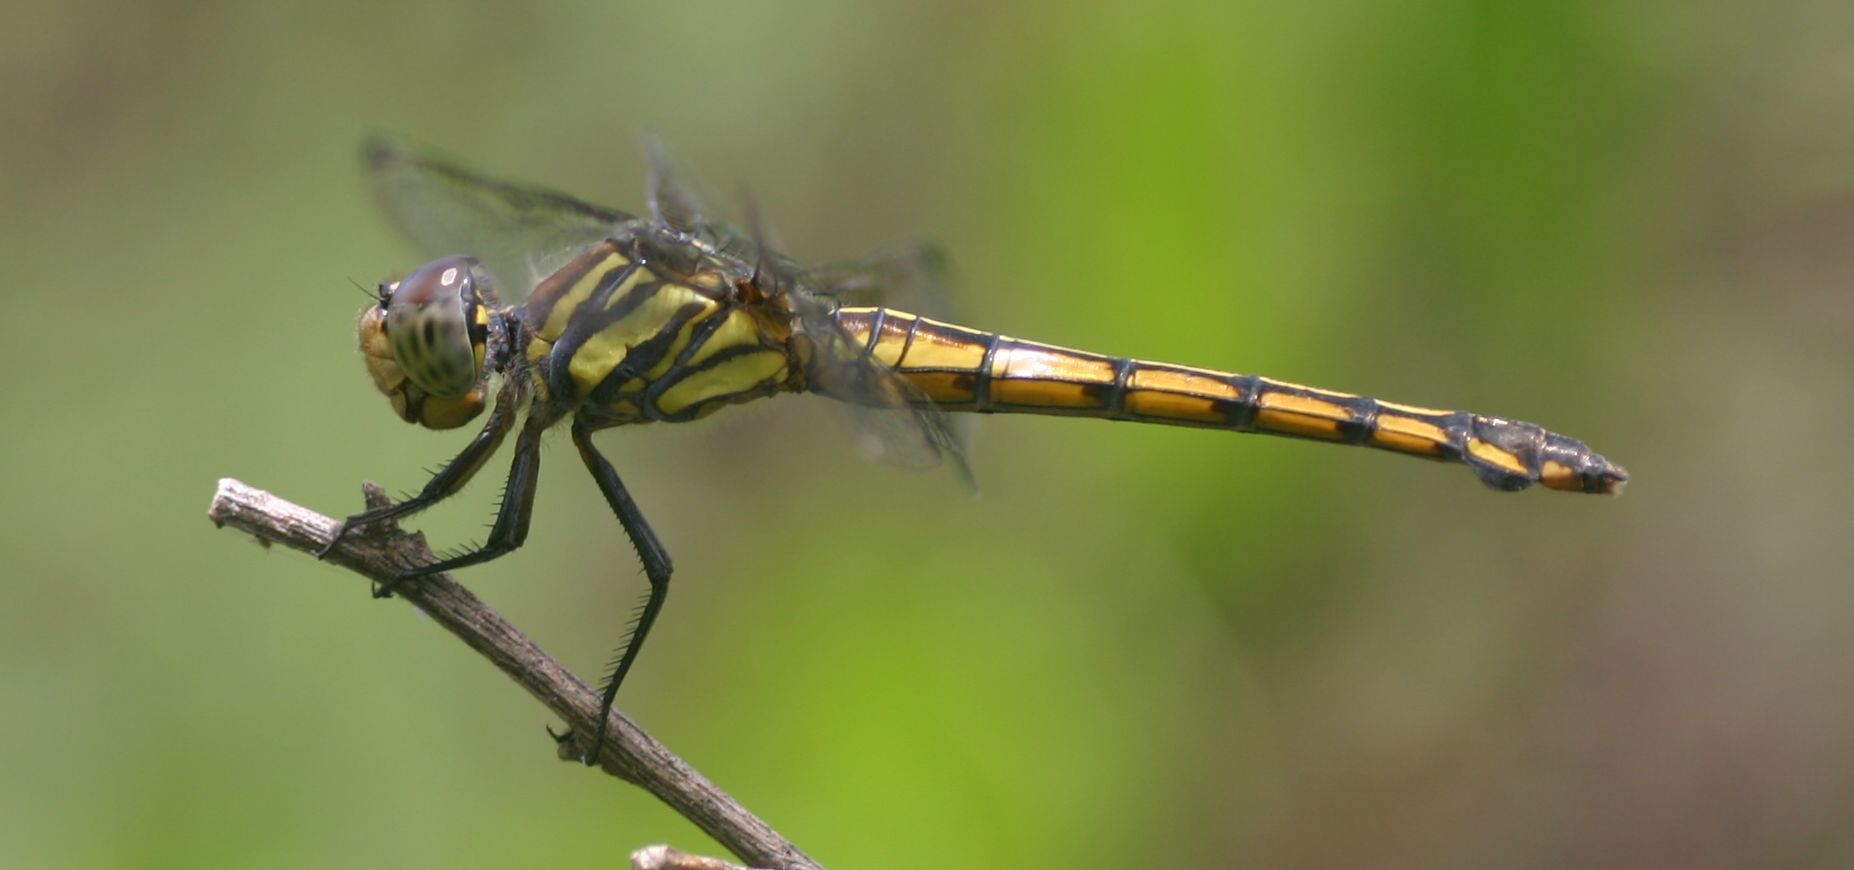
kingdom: Animalia
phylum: Arthropoda
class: Insecta
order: Odonata
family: Libellulidae
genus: Potamarcha
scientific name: Potamarcha congener
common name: Blue chaser
